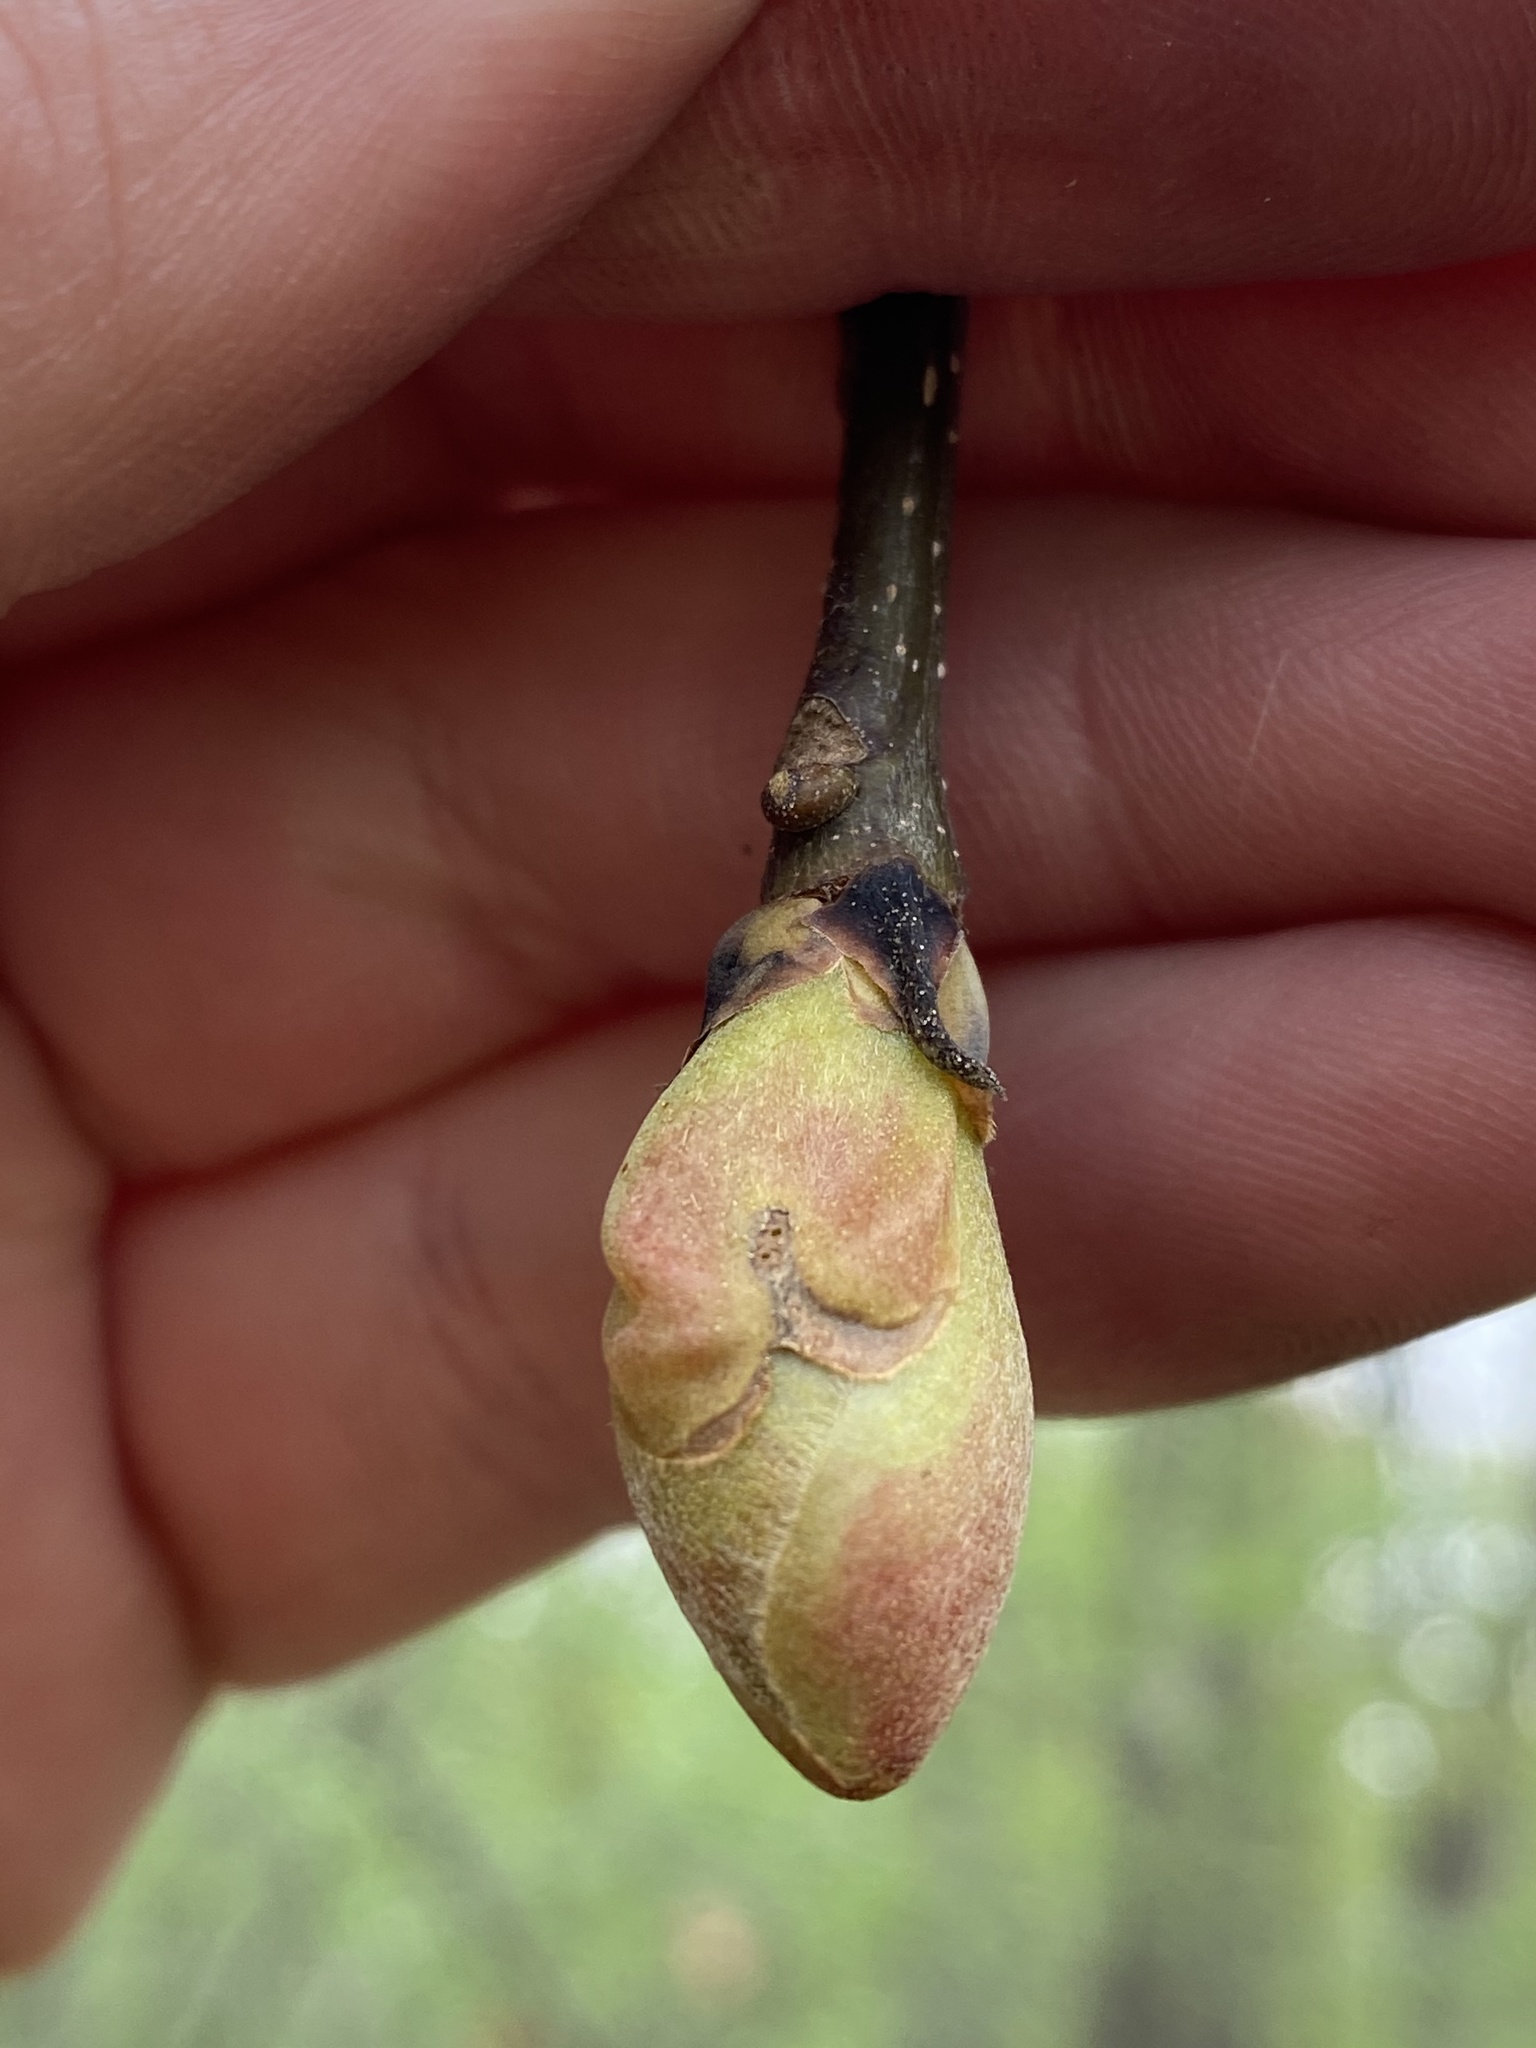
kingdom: Plantae
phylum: Tracheophyta
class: Magnoliopsida
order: Fagales
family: Juglandaceae
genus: Juglans
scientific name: Juglans cinerea
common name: Butternut
